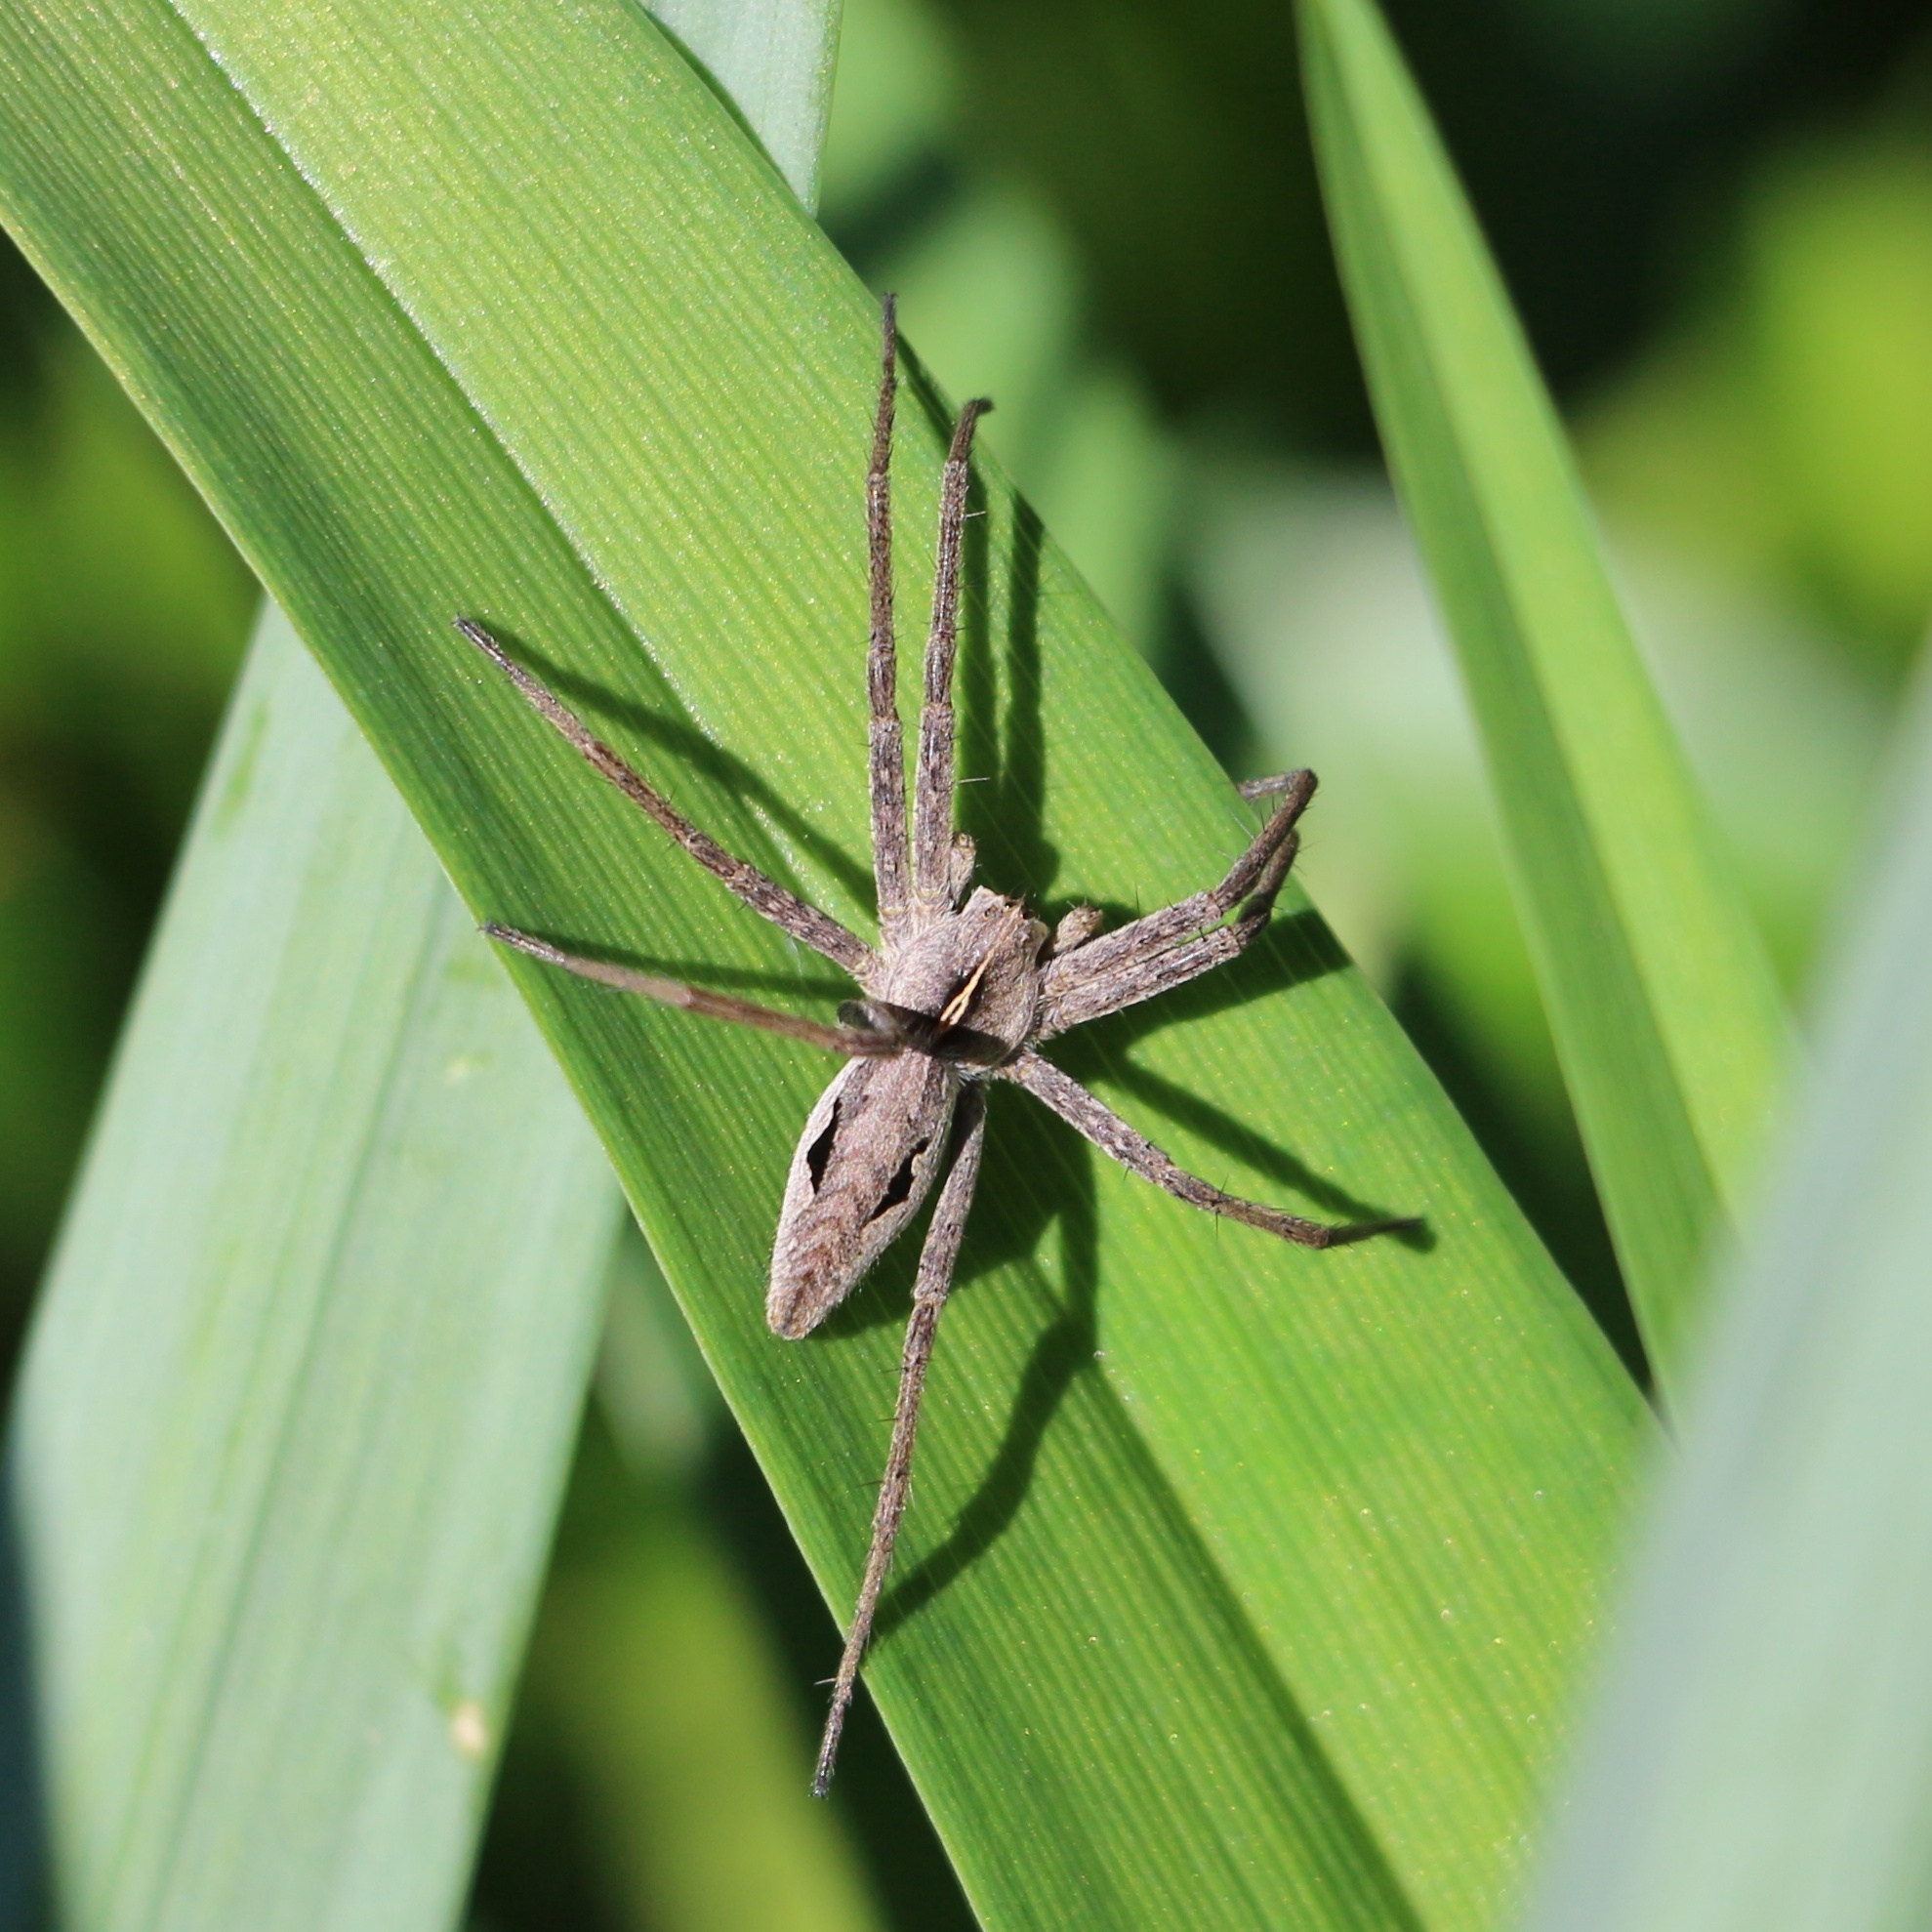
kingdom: Animalia
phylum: Arthropoda
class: Arachnida
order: Araneae
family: Pisauridae
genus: Pisaura
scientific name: Pisaura
